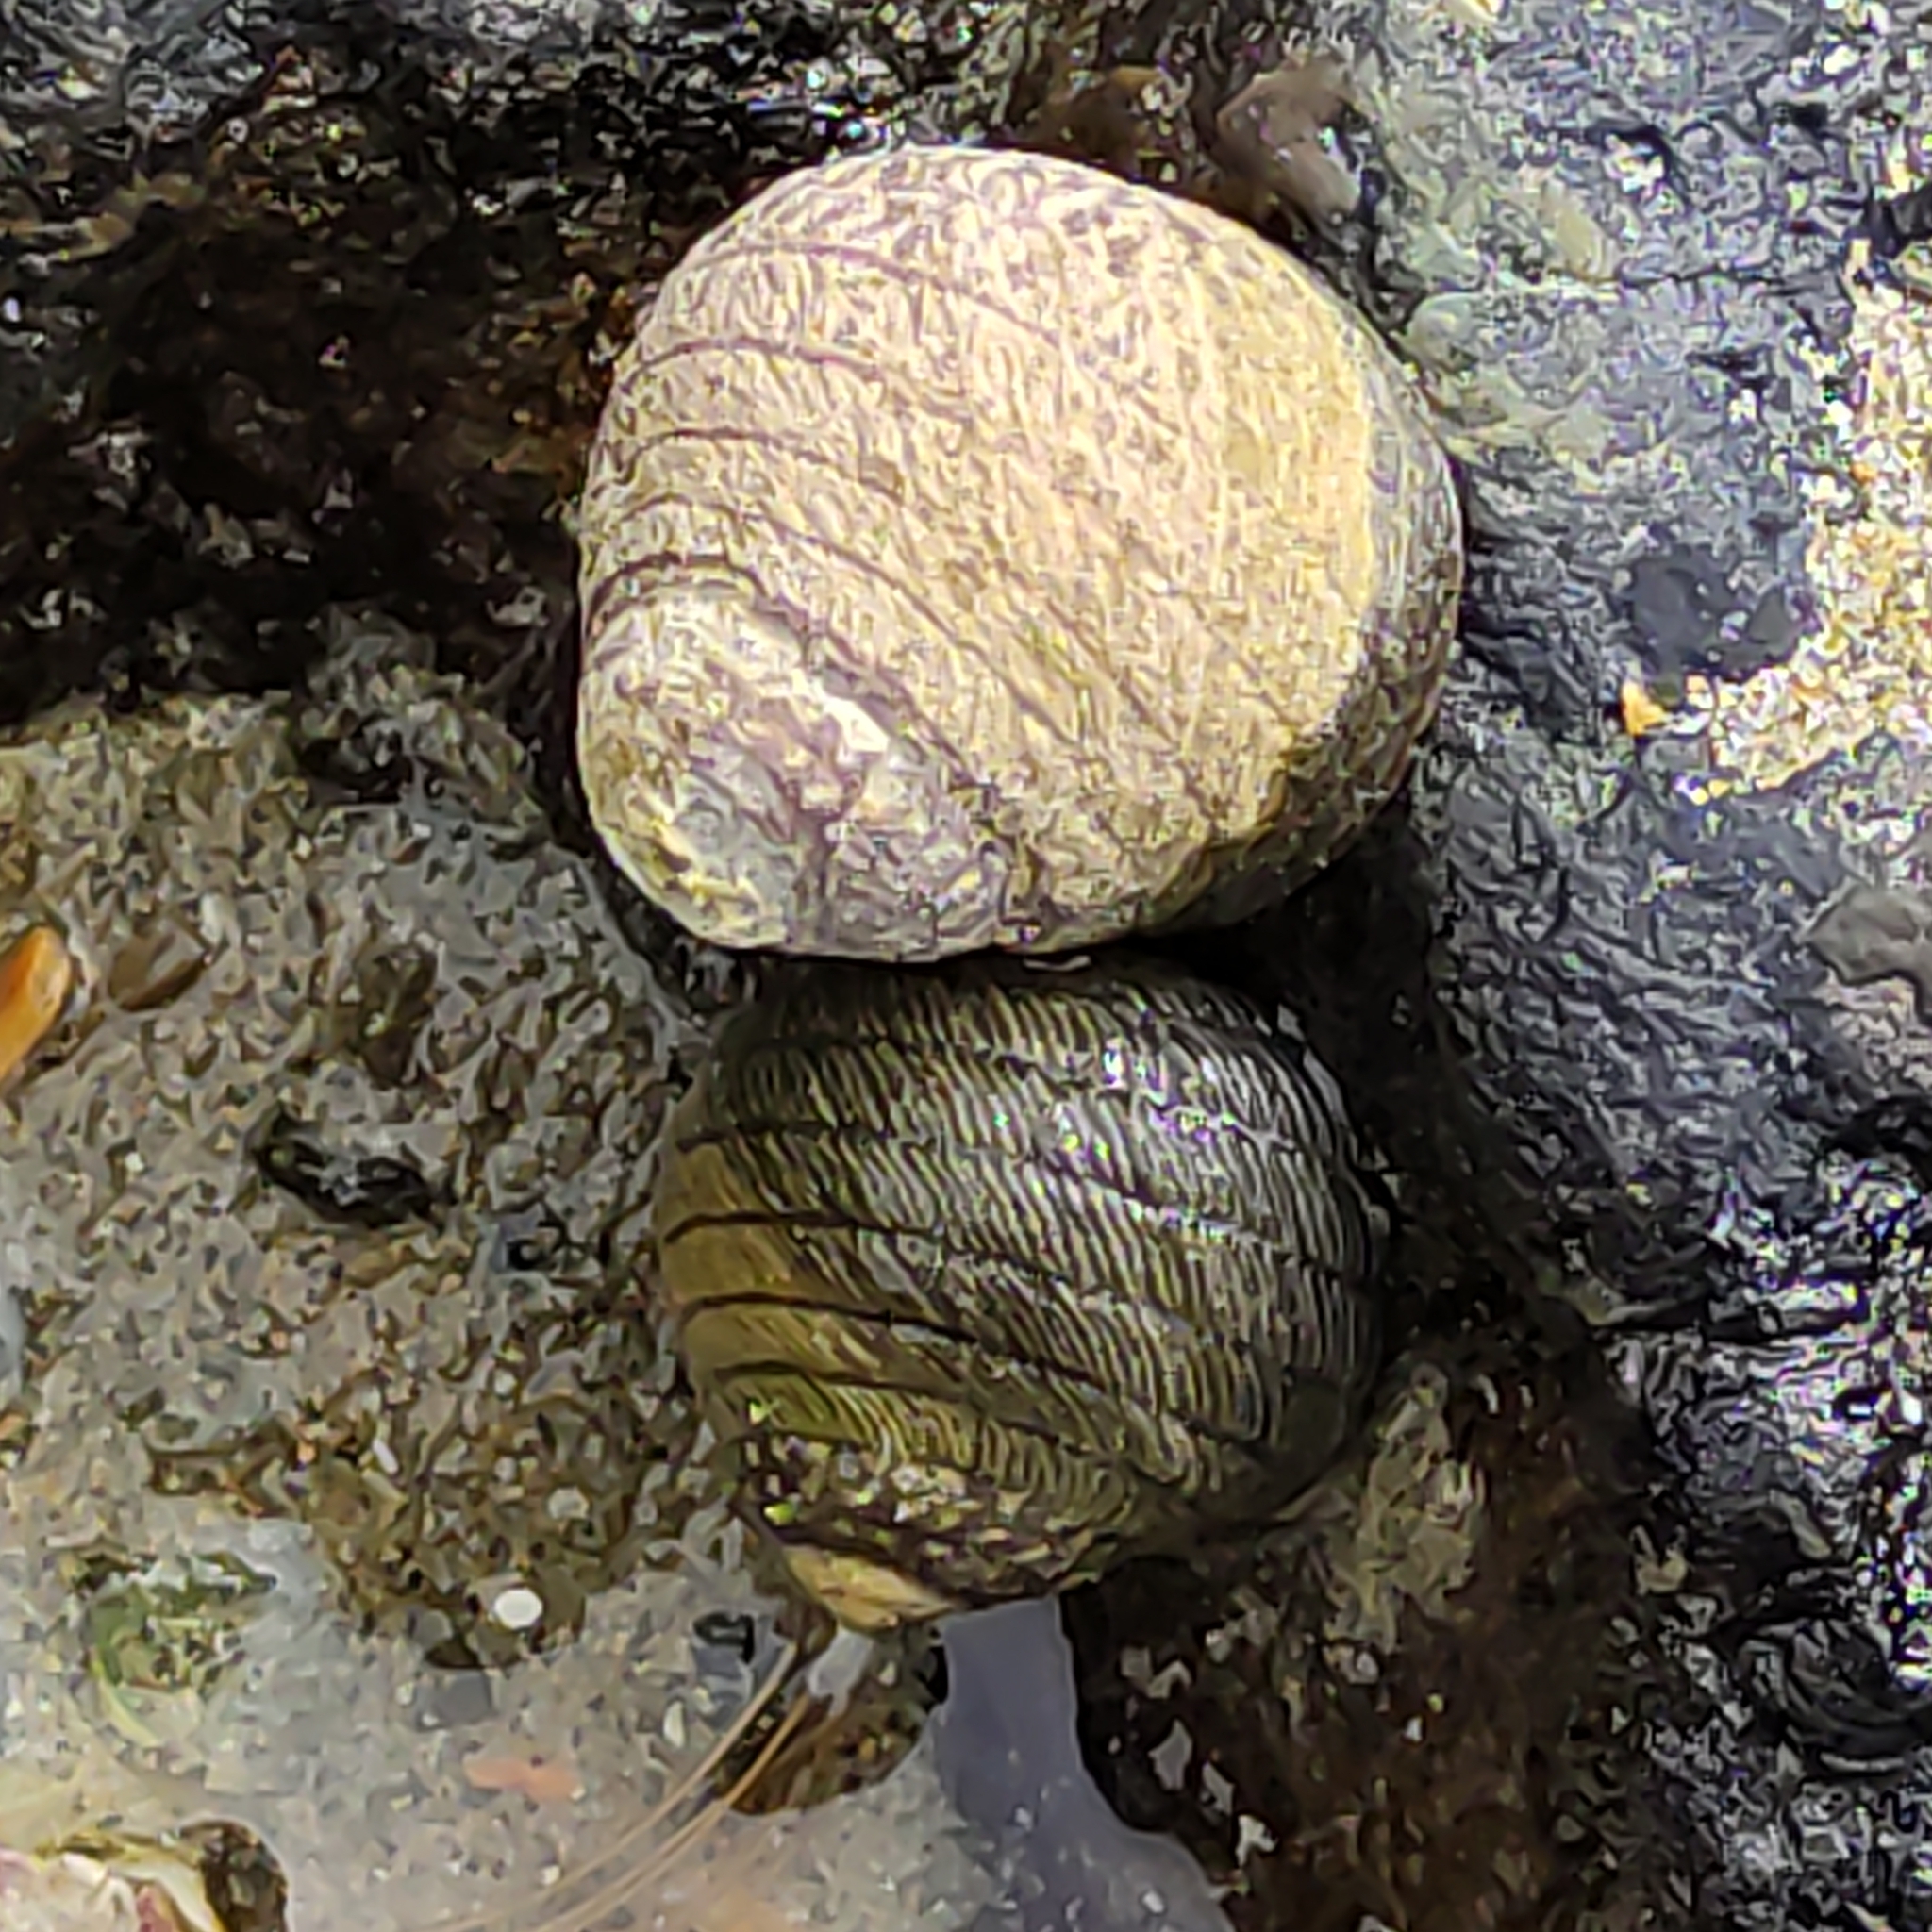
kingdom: Animalia
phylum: Mollusca
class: Gastropoda
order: Trochida
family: Trochidae
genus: Diloma
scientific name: Diloma aethiops
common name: Scorched monodont
